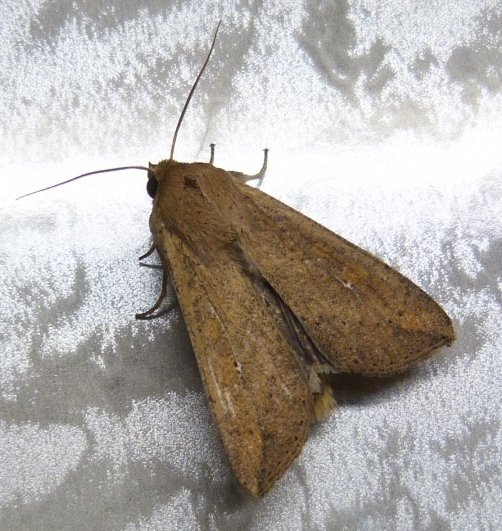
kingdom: Animalia
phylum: Arthropoda
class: Insecta
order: Lepidoptera
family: Noctuidae
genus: Mythimna
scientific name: Mythimna unipuncta
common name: White-speck
